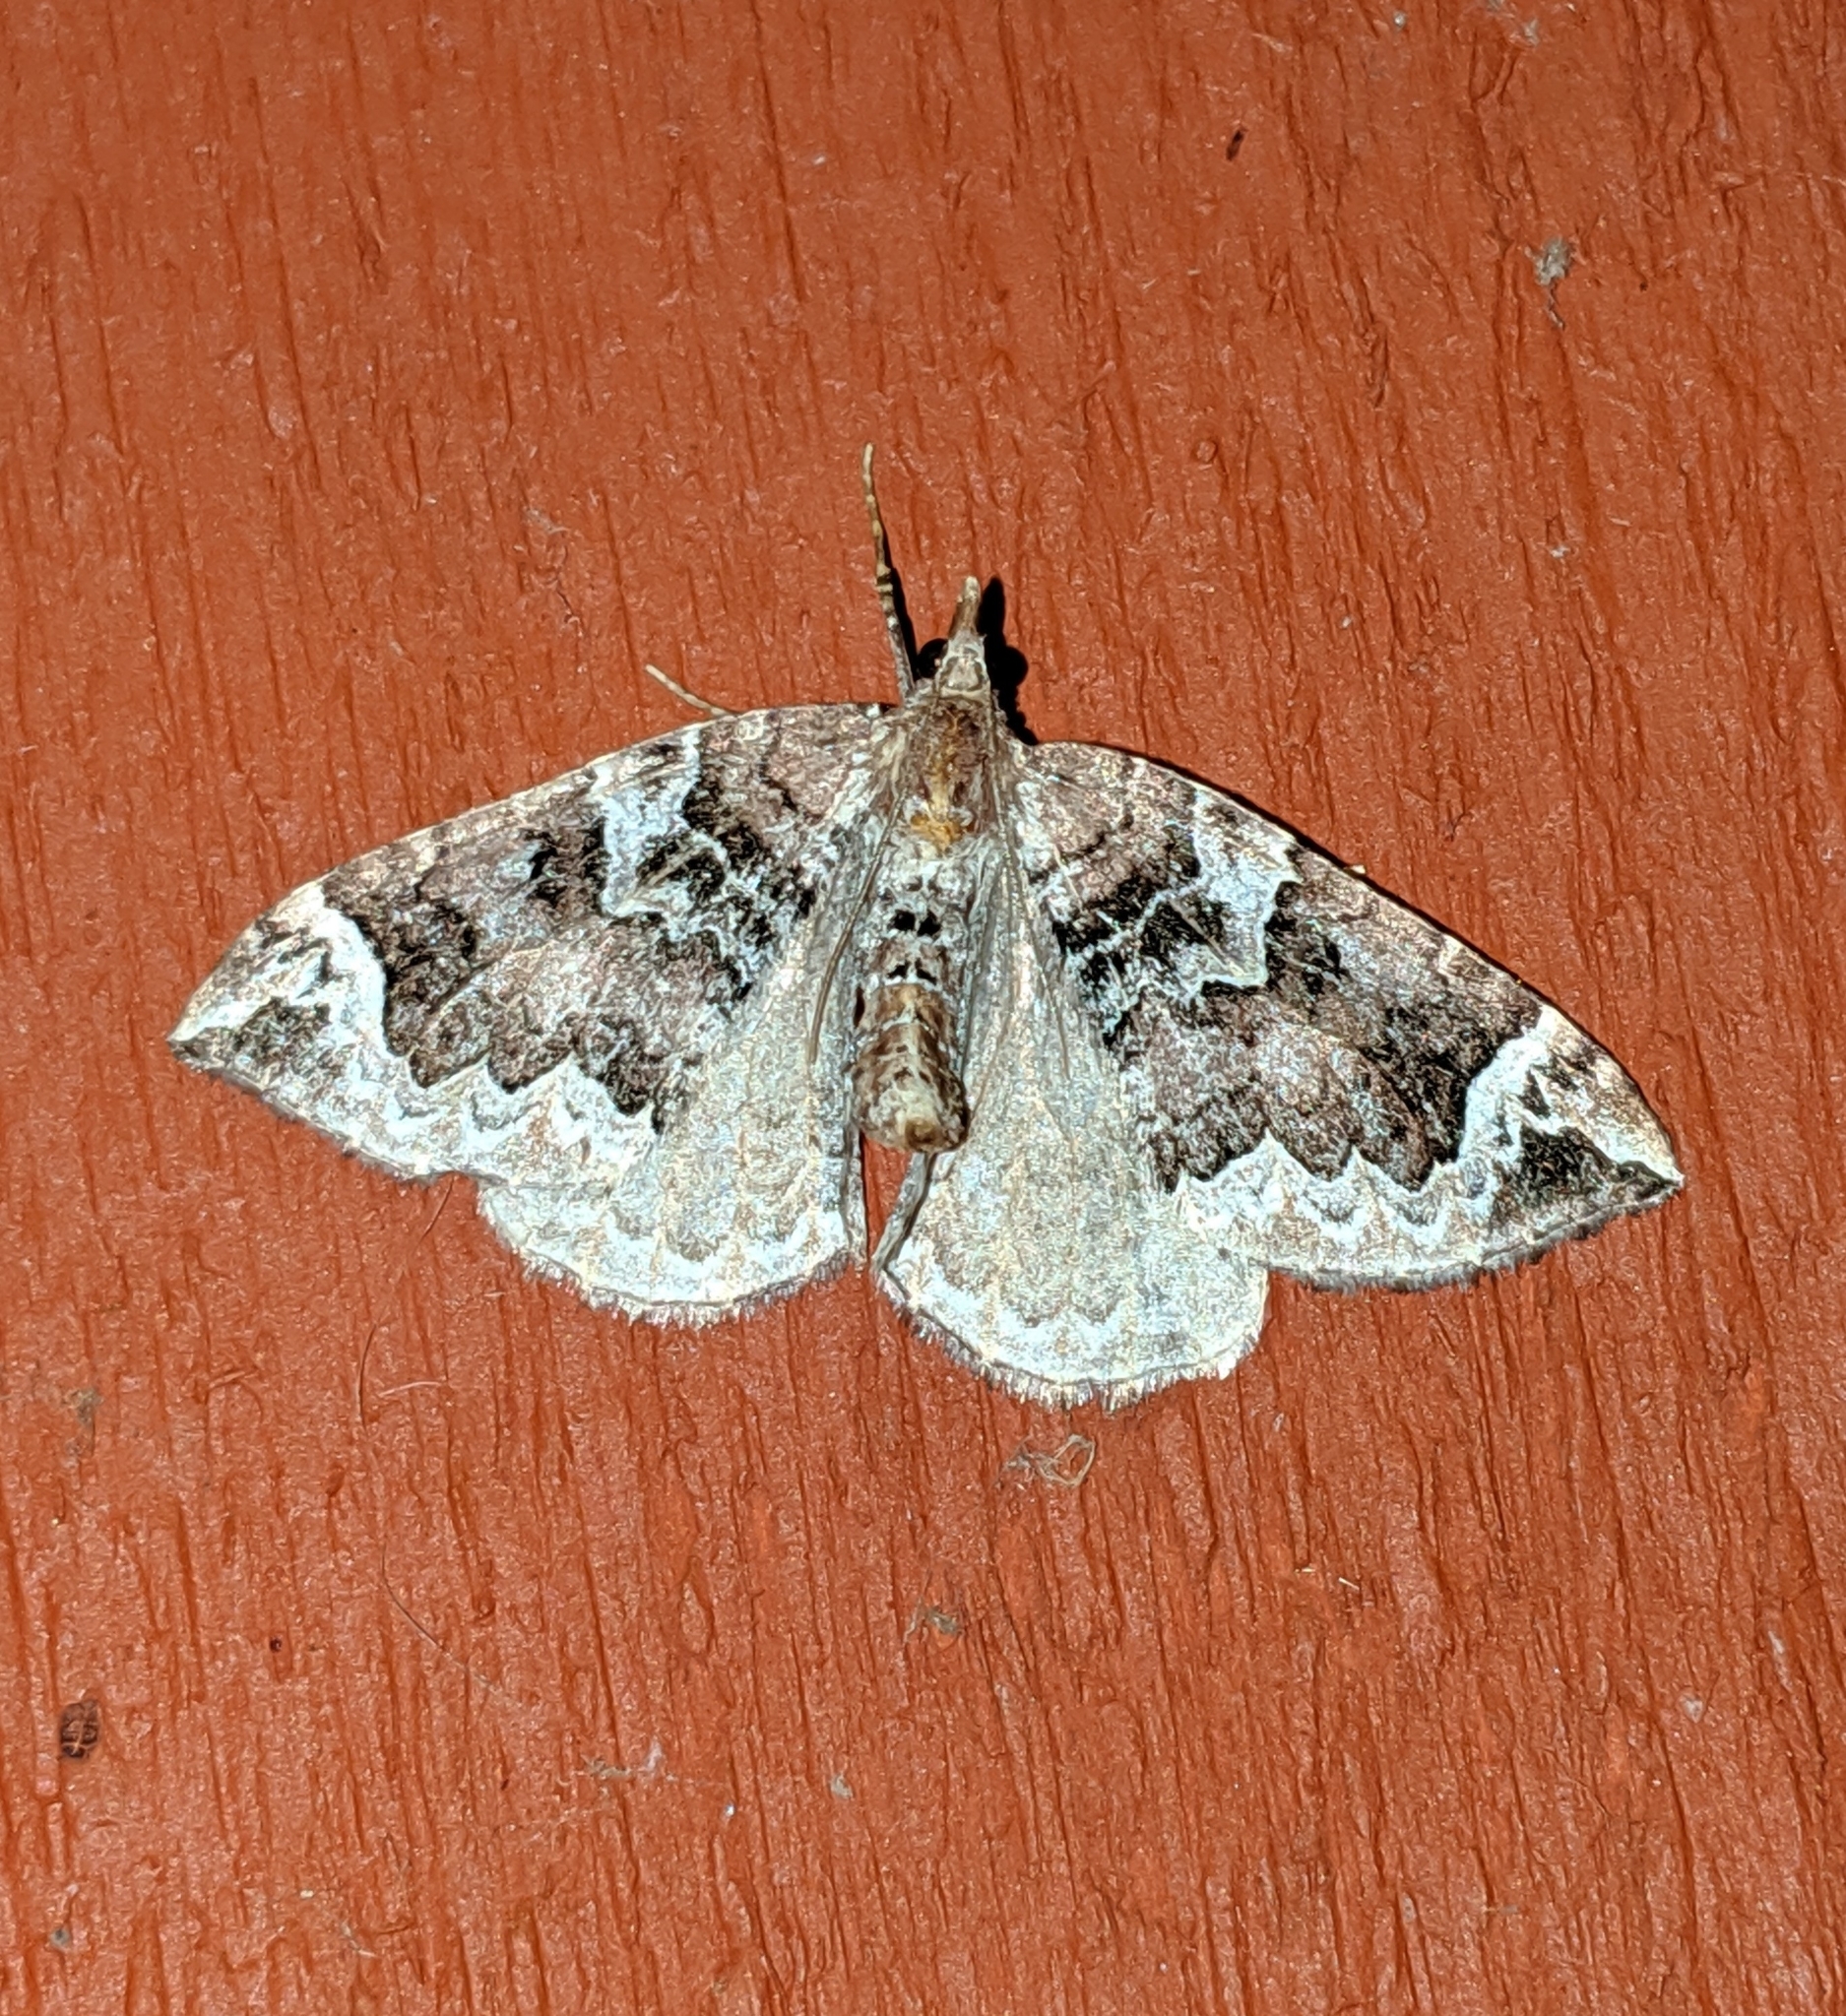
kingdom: Animalia
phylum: Arthropoda
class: Insecta
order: Lepidoptera
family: Geometridae
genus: Eulithis
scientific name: Eulithis xylina
